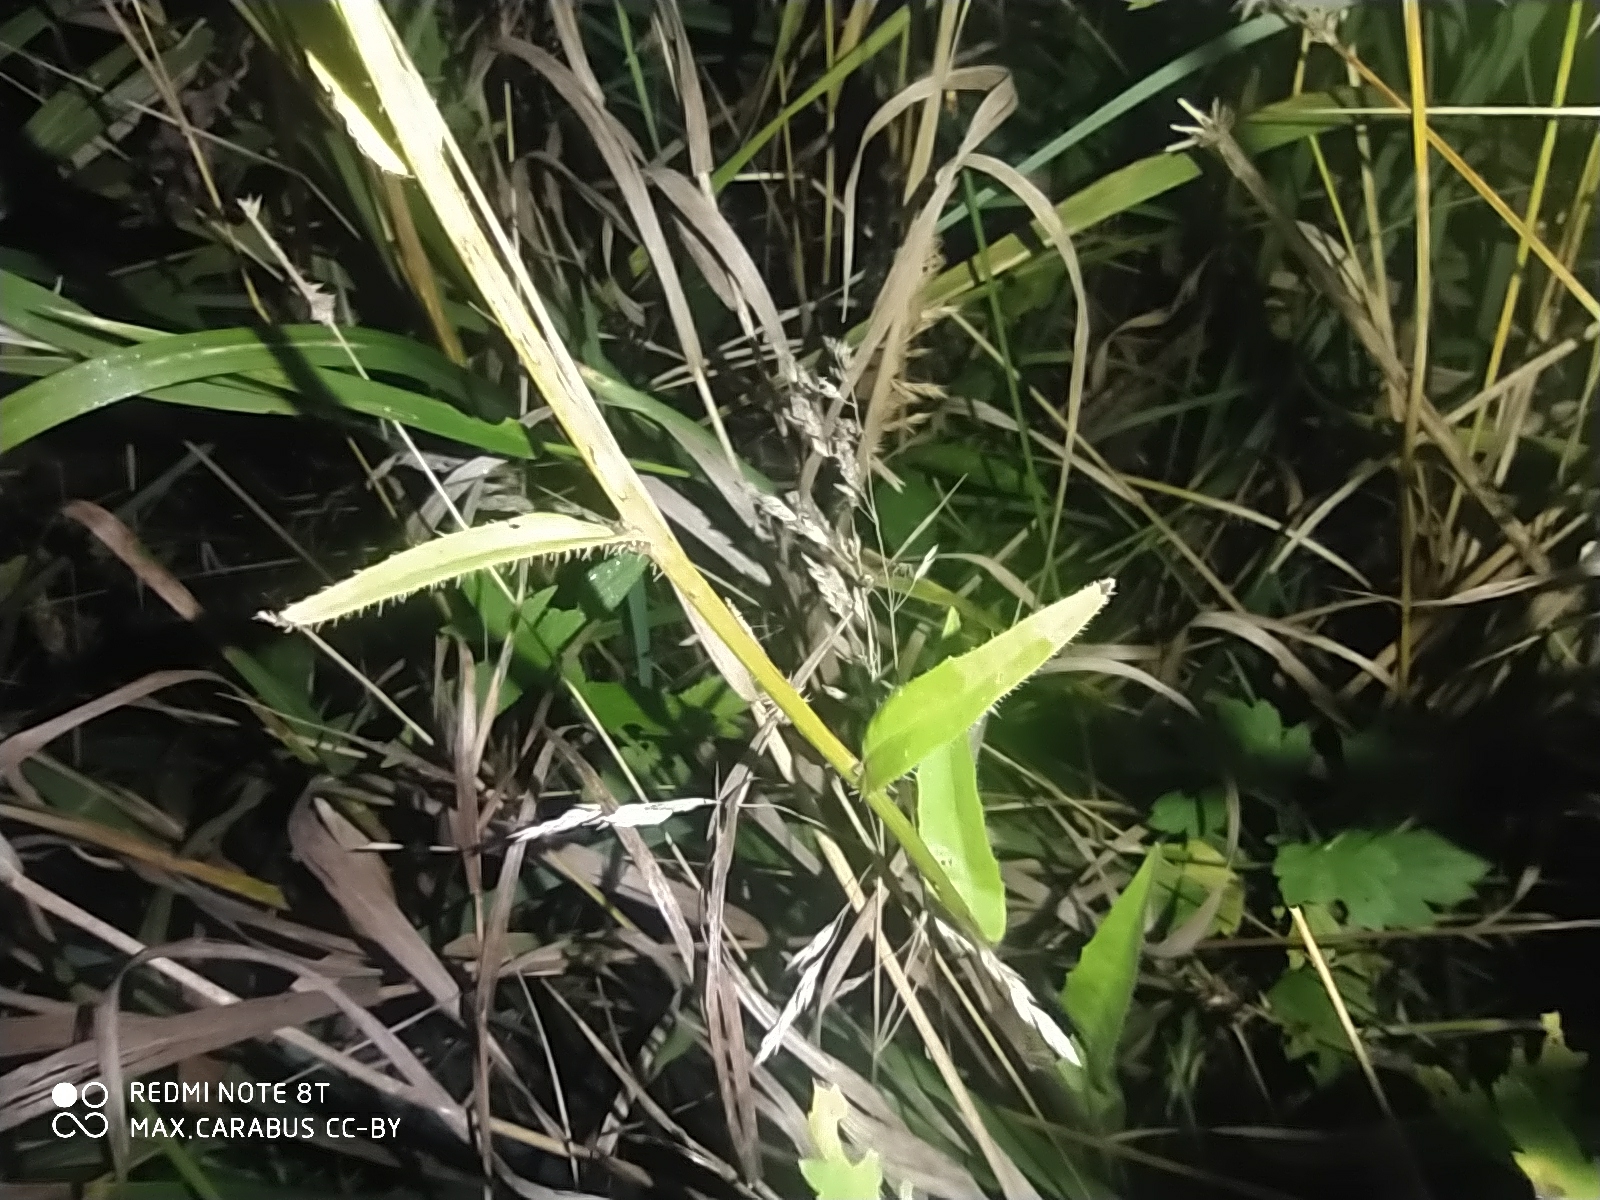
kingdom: Plantae
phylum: Tracheophyta
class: Magnoliopsida
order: Asterales
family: Asteraceae
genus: Picris
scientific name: Picris hieracioides
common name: Hawkweed oxtongue
